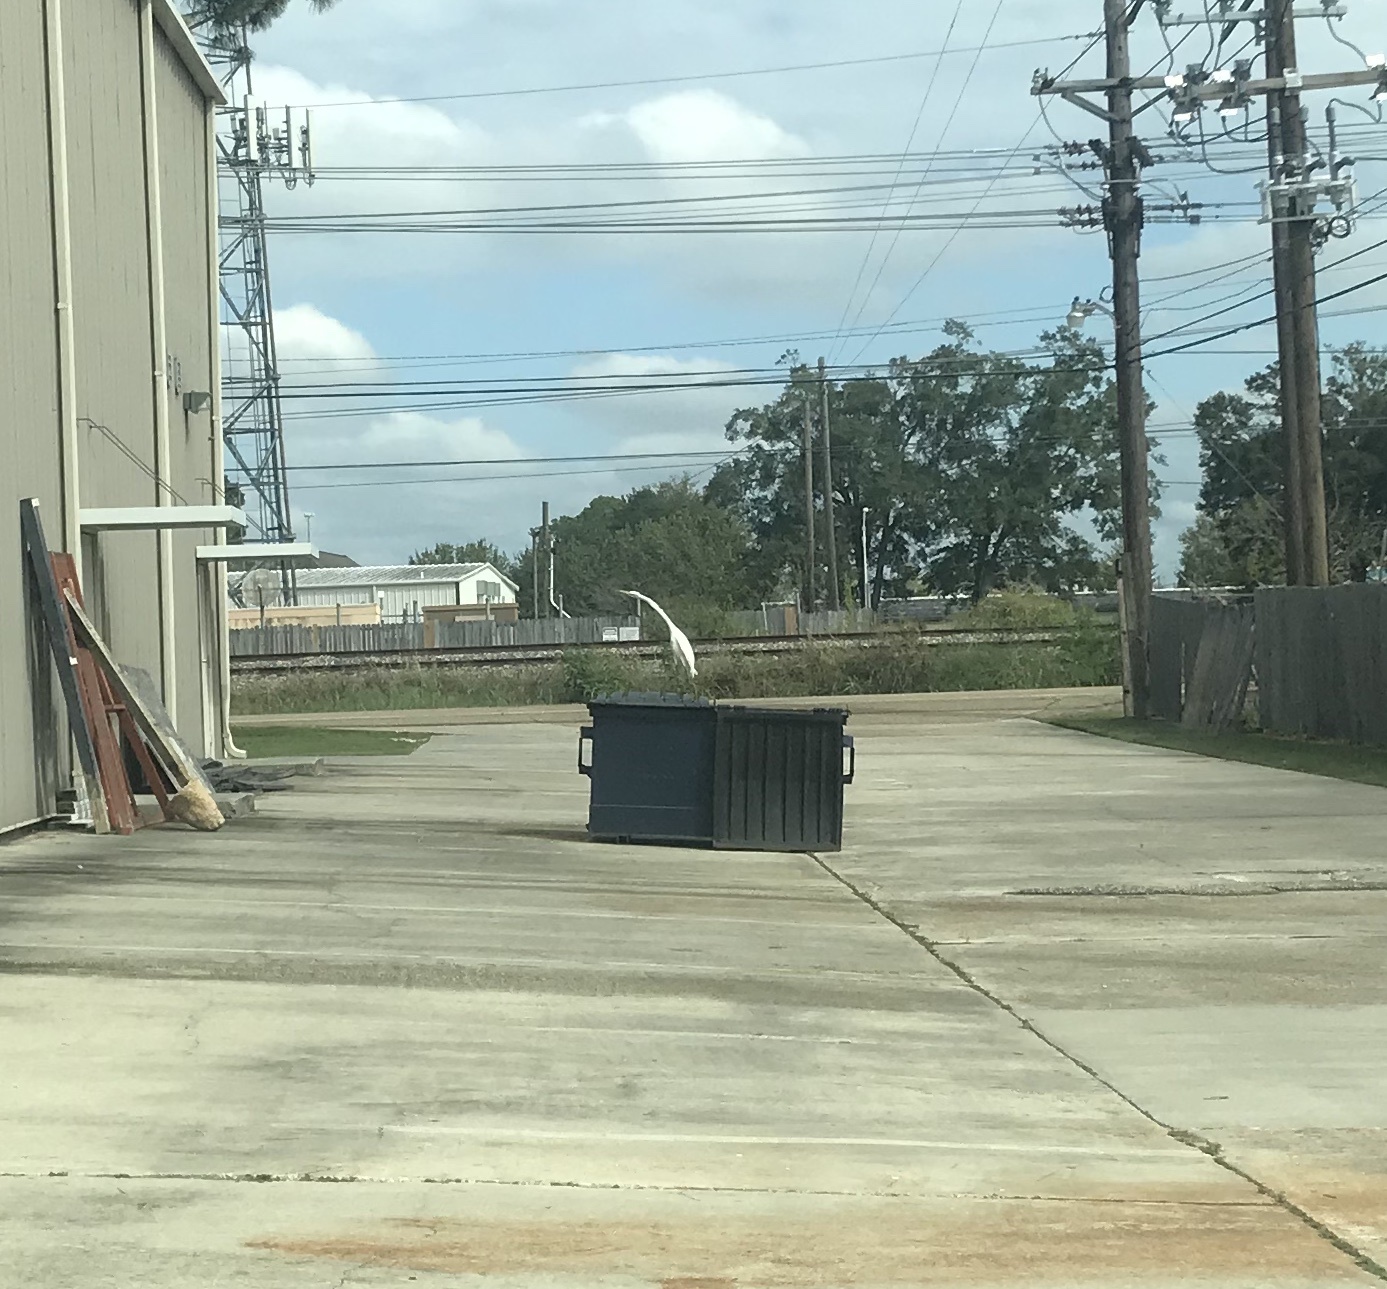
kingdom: Animalia
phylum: Chordata
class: Aves
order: Pelecaniformes
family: Ardeidae
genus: Ardea
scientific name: Ardea alba
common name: Great egret
